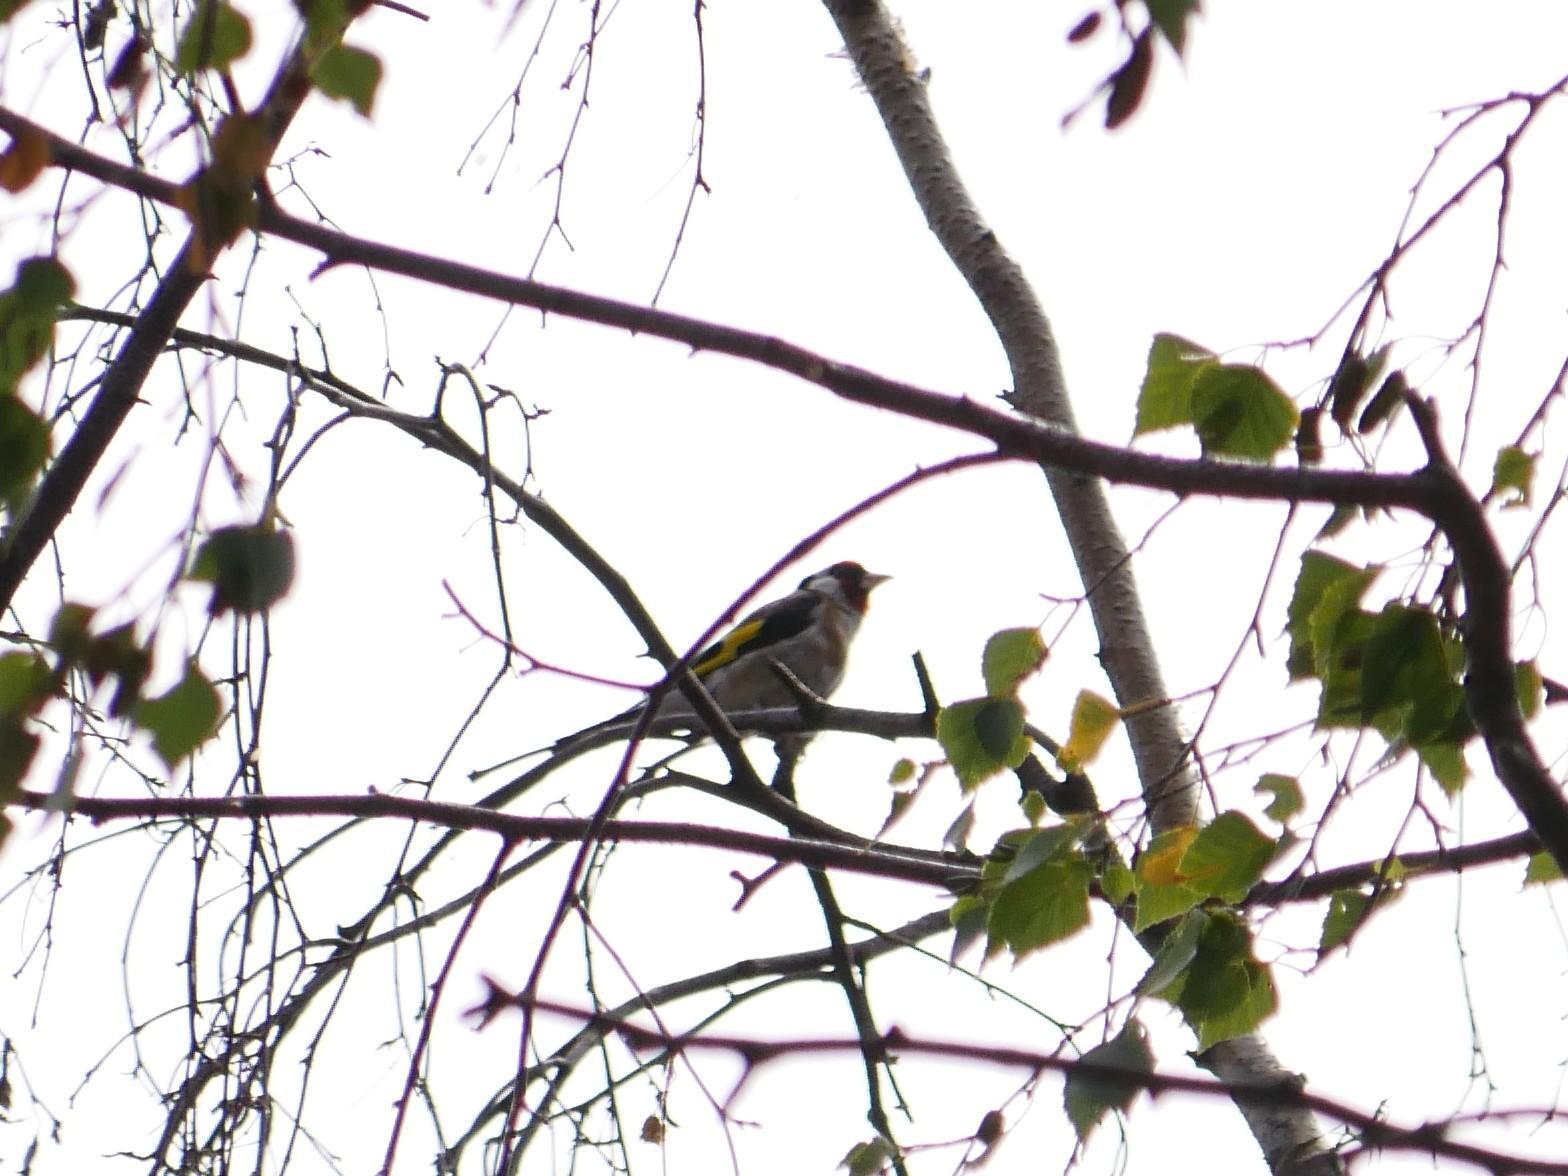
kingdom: Animalia
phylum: Chordata
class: Aves
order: Passeriformes
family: Fringillidae
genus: Carduelis
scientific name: Carduelis carduelis
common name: European goldfinch
